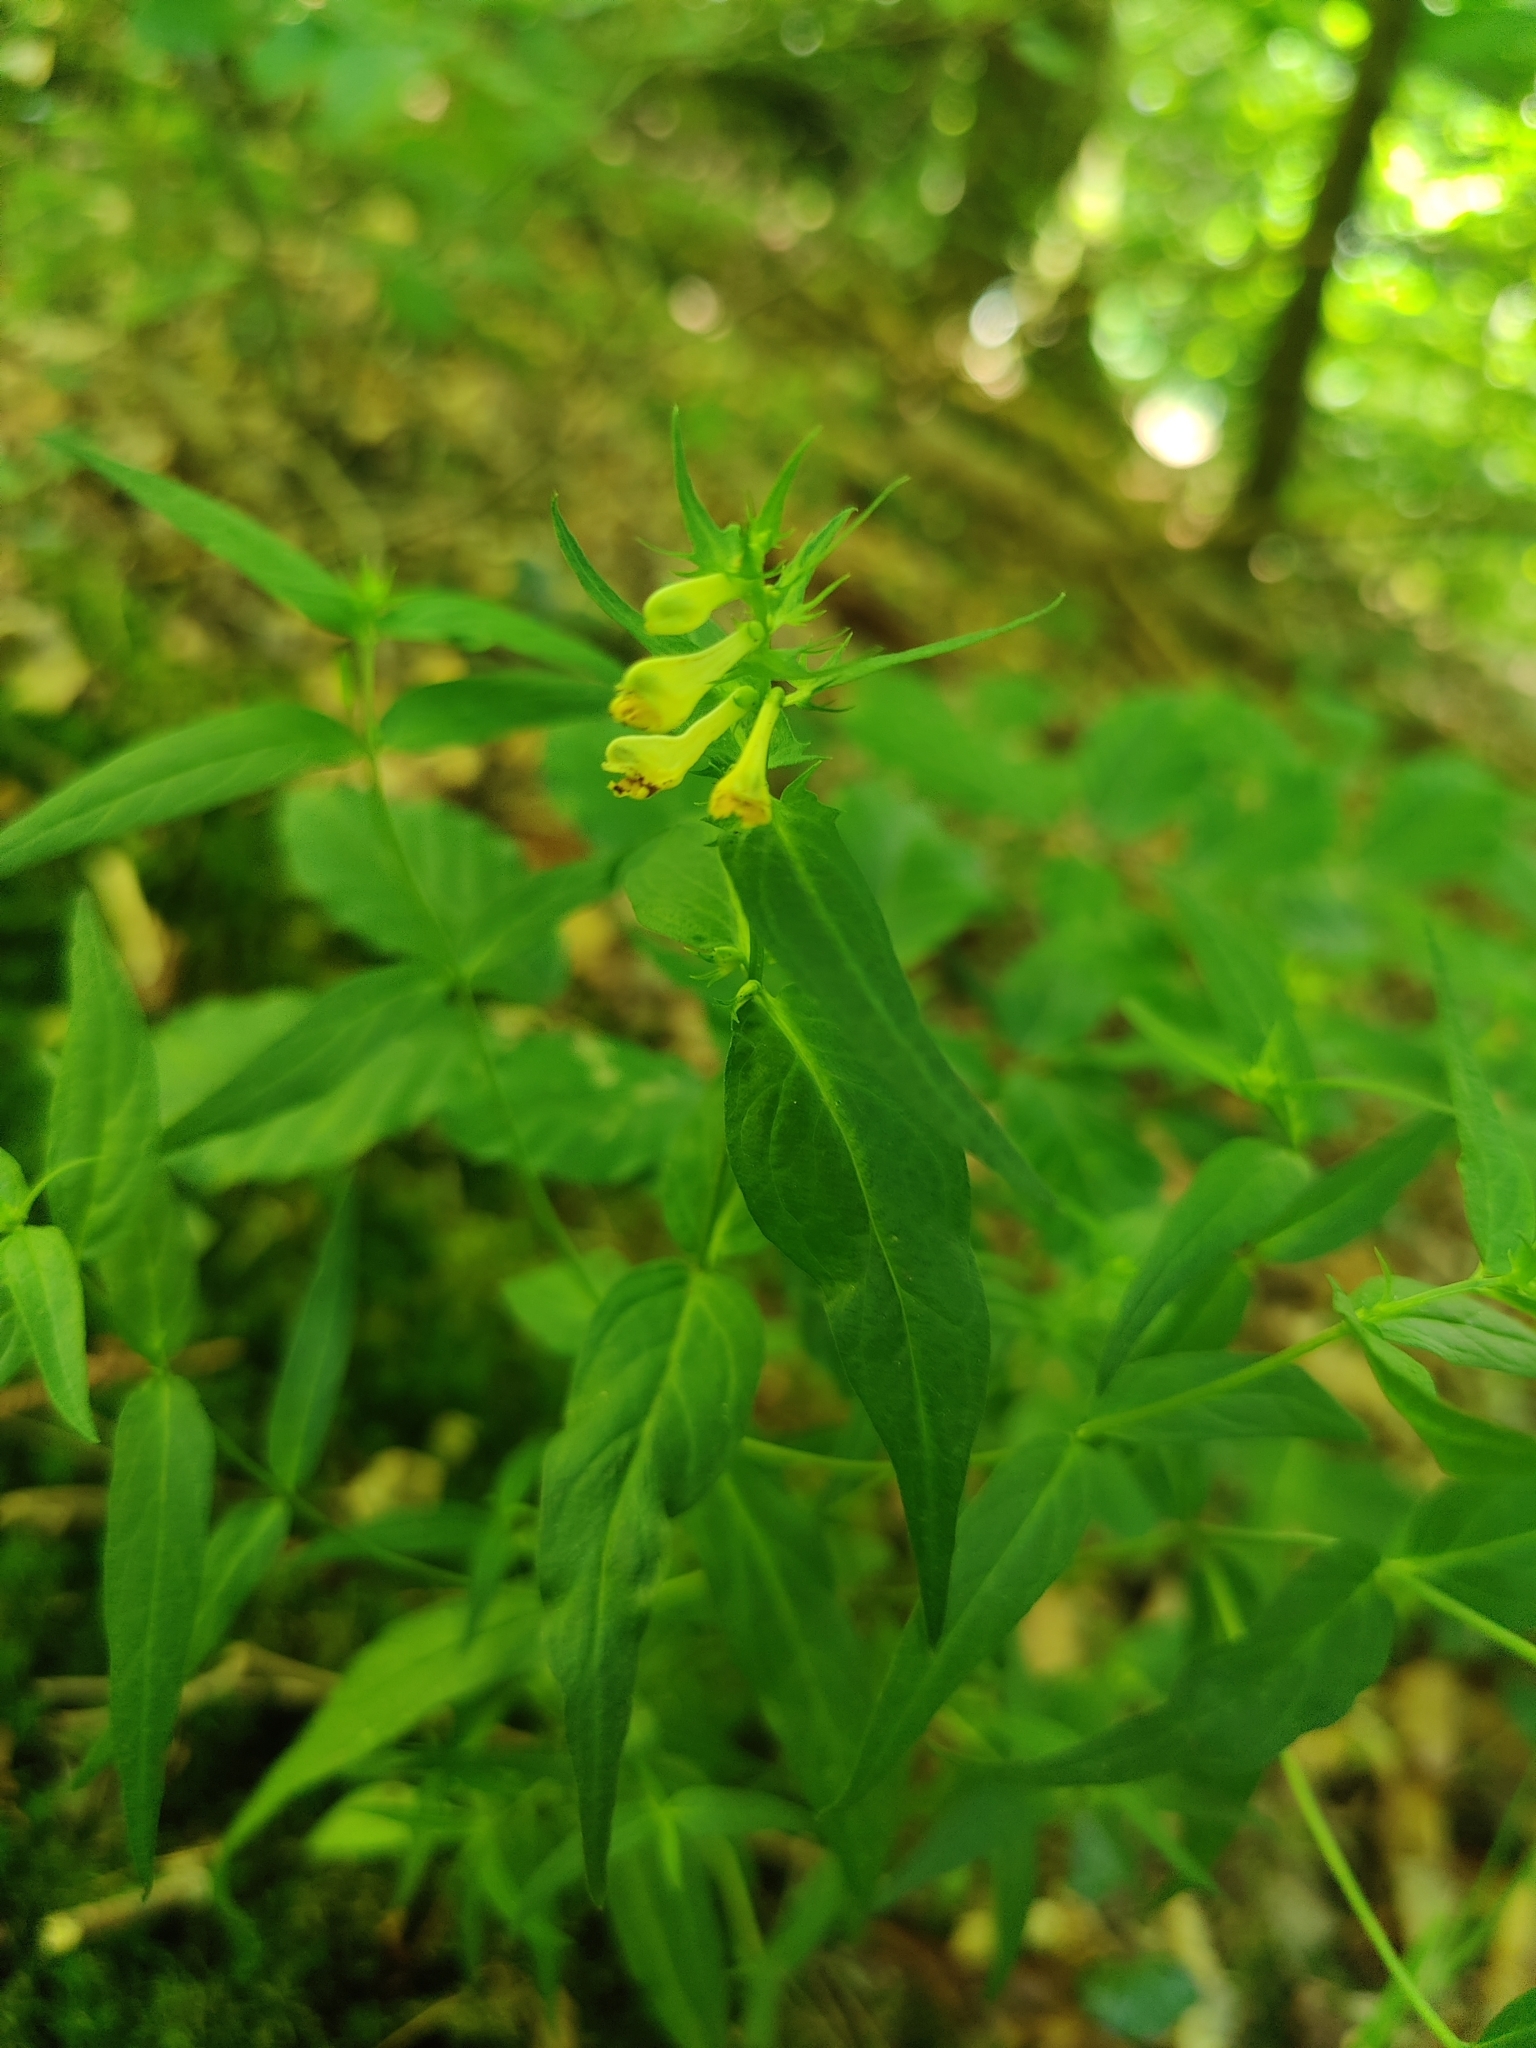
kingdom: Plantae
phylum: Tracheophyta
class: Magnoliopsida
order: Lamiales
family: Orobanchaceae
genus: Melampyrum
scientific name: Melampyrum pratense
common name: Common cow-wheat
